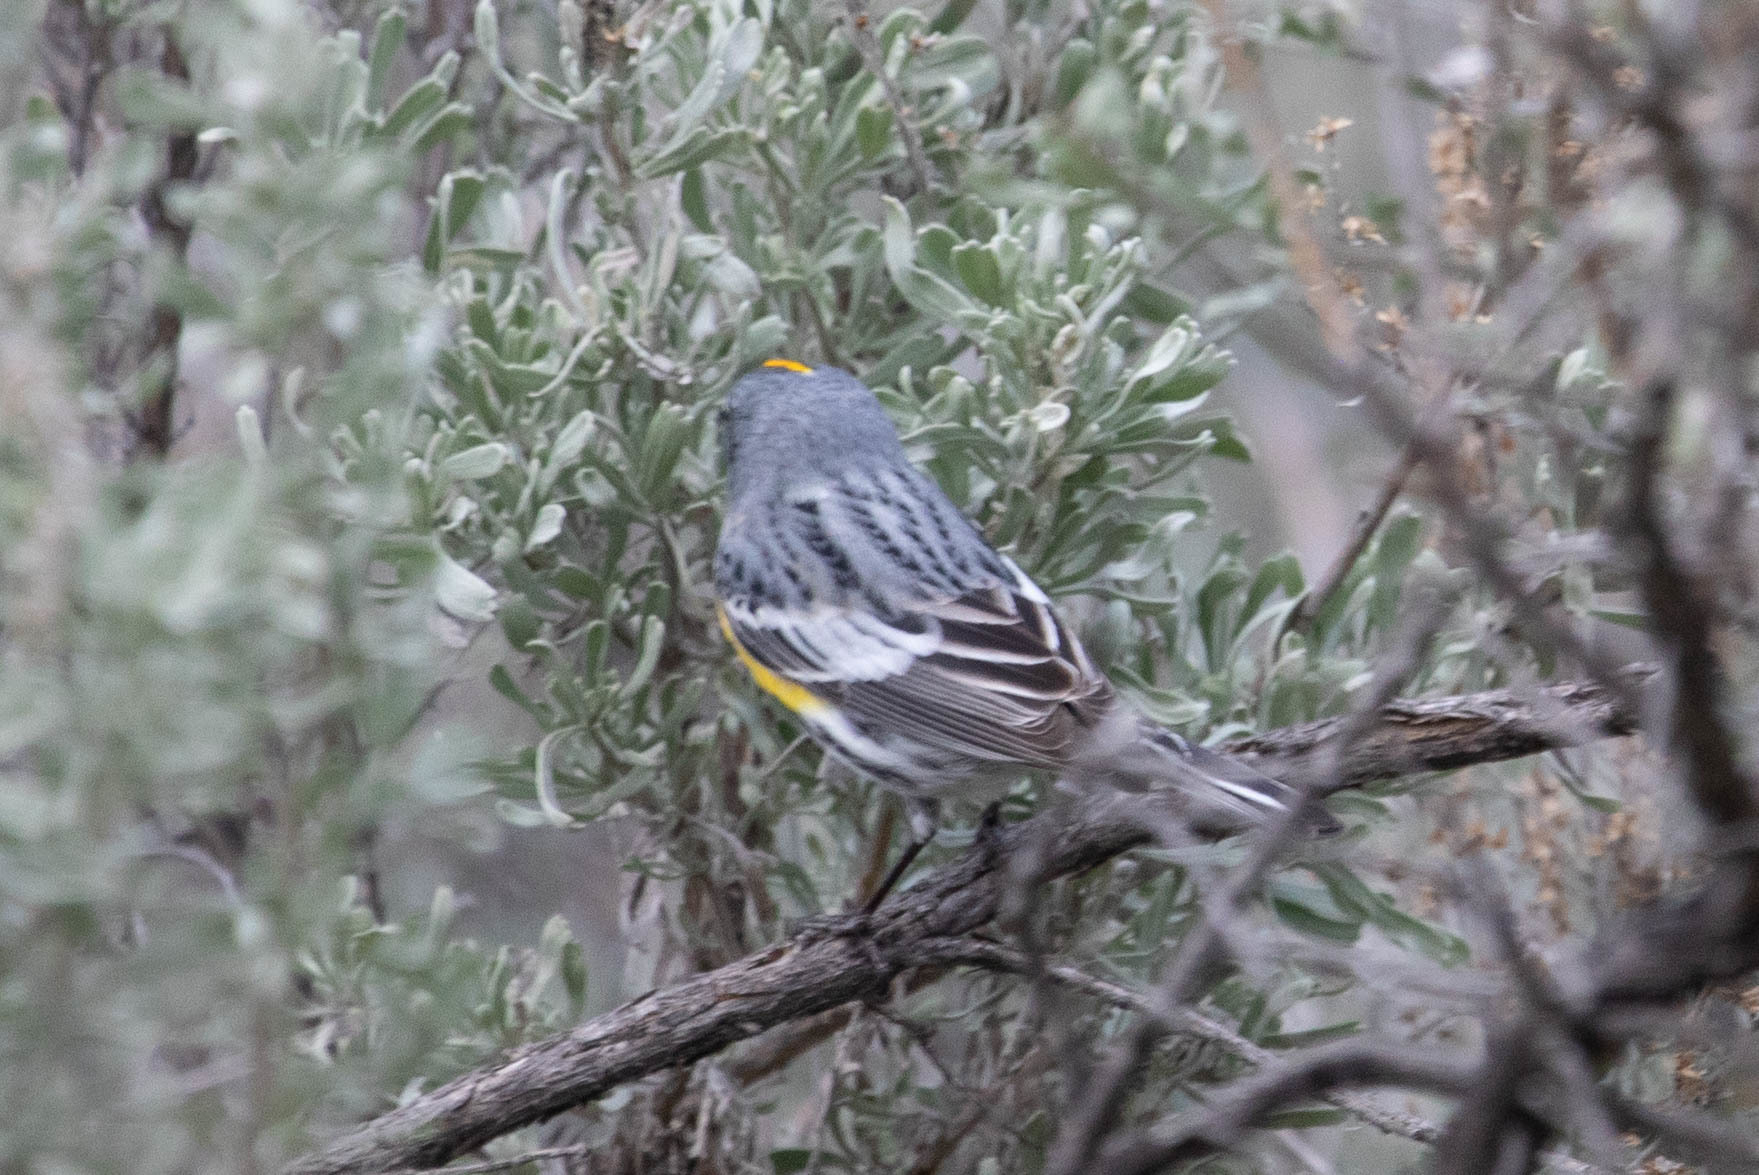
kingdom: Animalia
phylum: Chordata
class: Aves
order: Passeriformes
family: Parulidae
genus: Setophaga
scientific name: Setophaga auduboni
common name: Audubon's warbler
